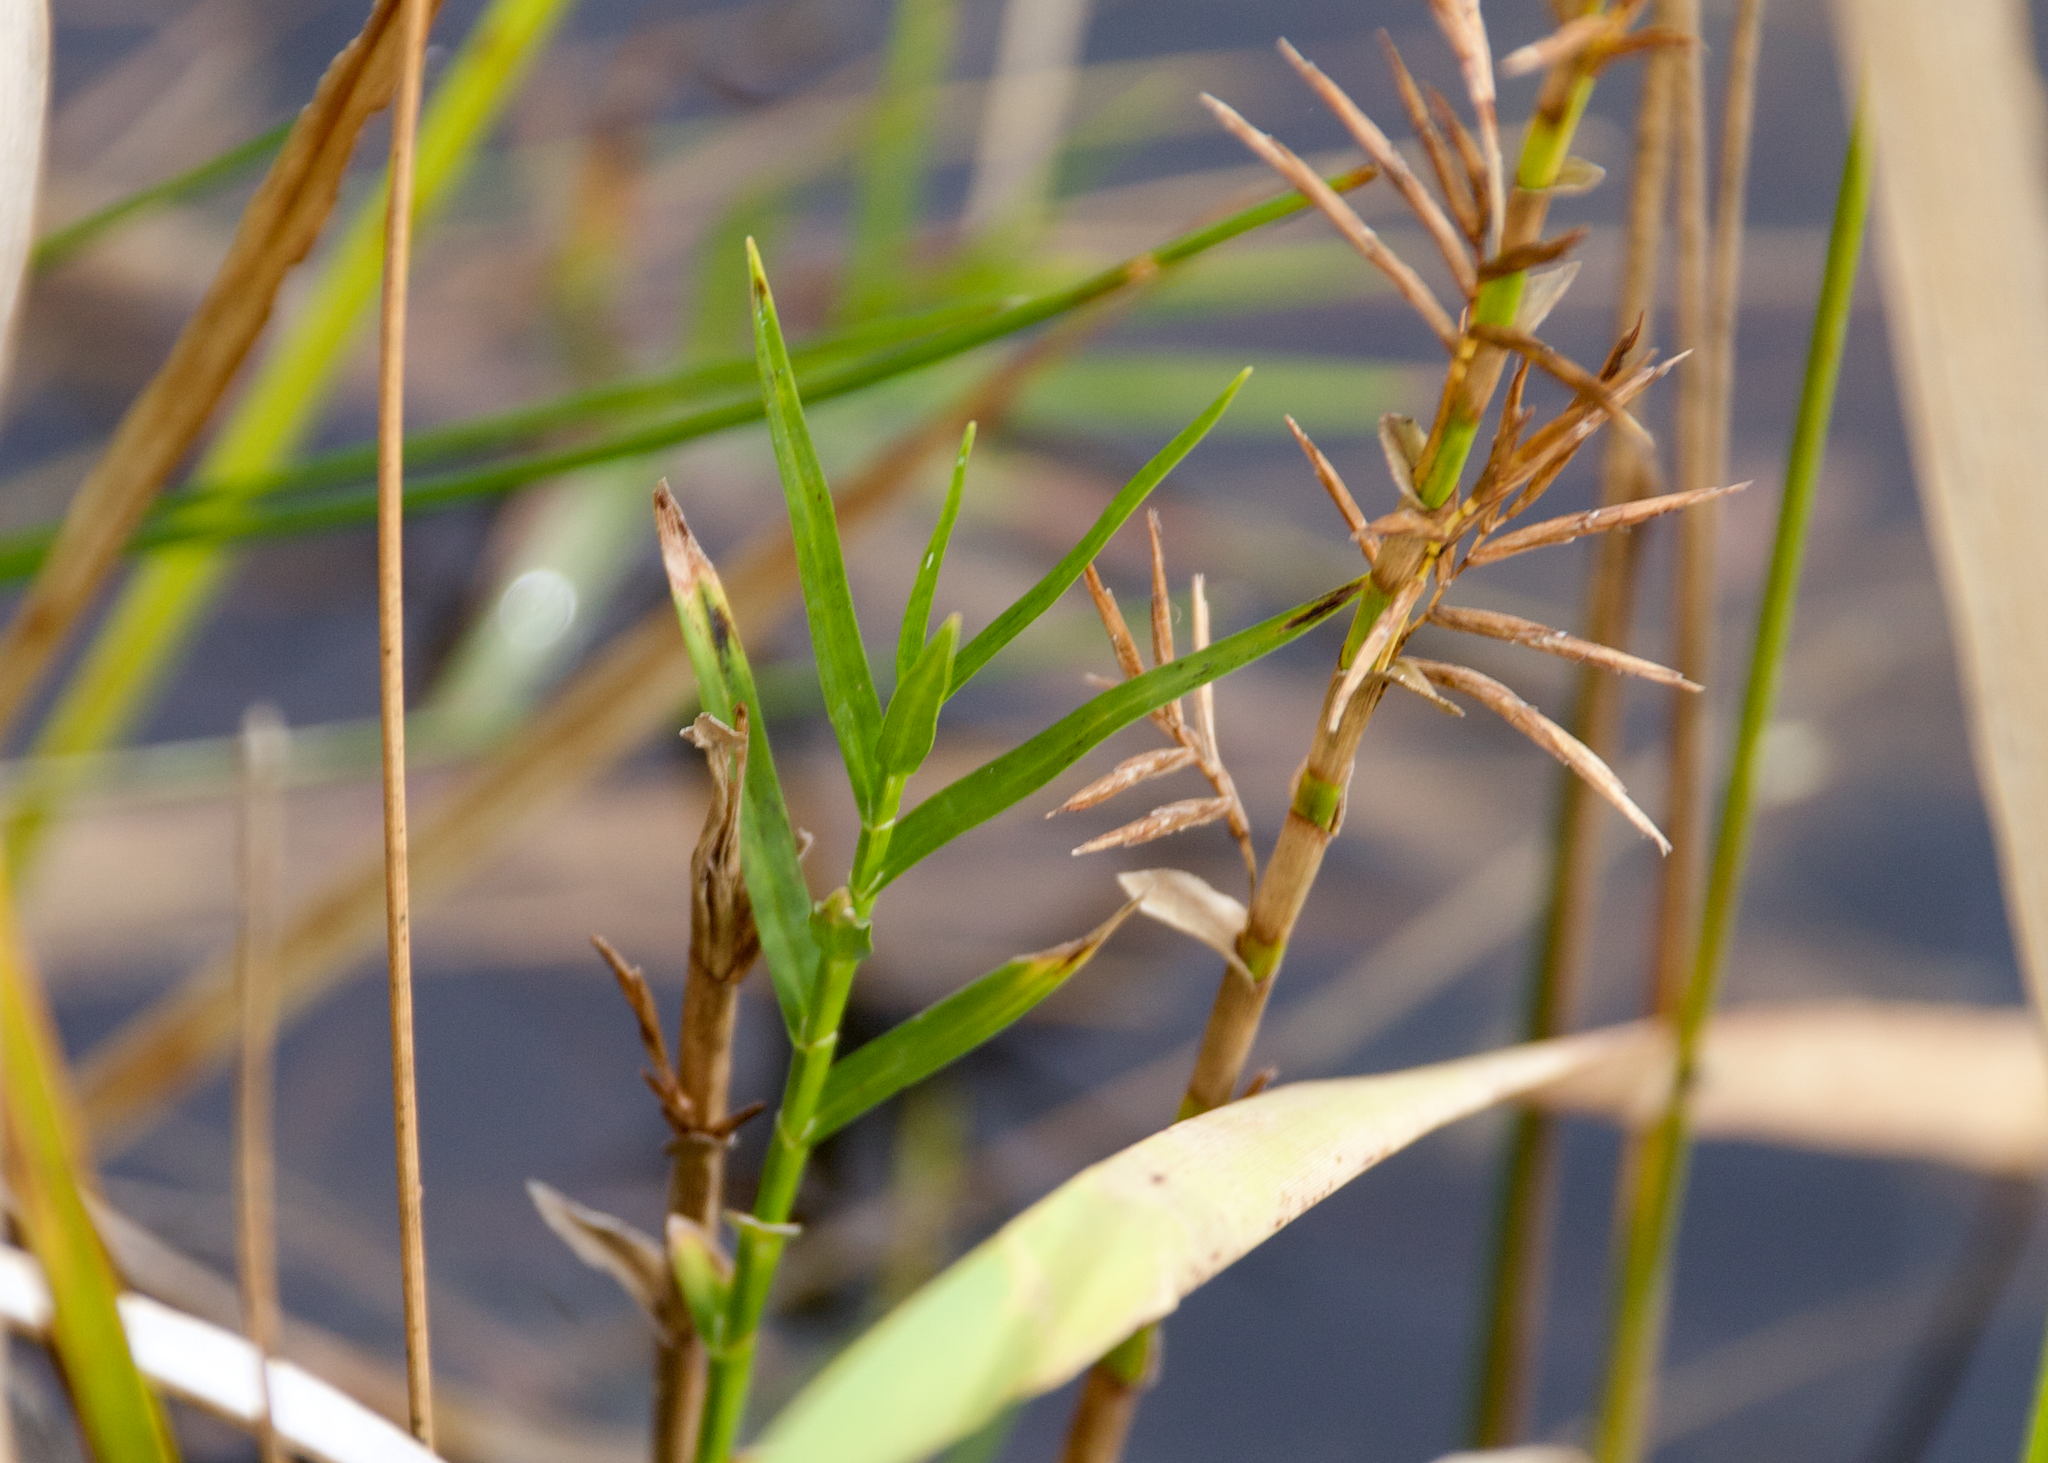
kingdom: Plantae
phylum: Tracheophyta
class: Liliopsida
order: Poales
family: Cyperaceae
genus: Dulichium
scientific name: Dulichium arundinaceum
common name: Three-way sedge
